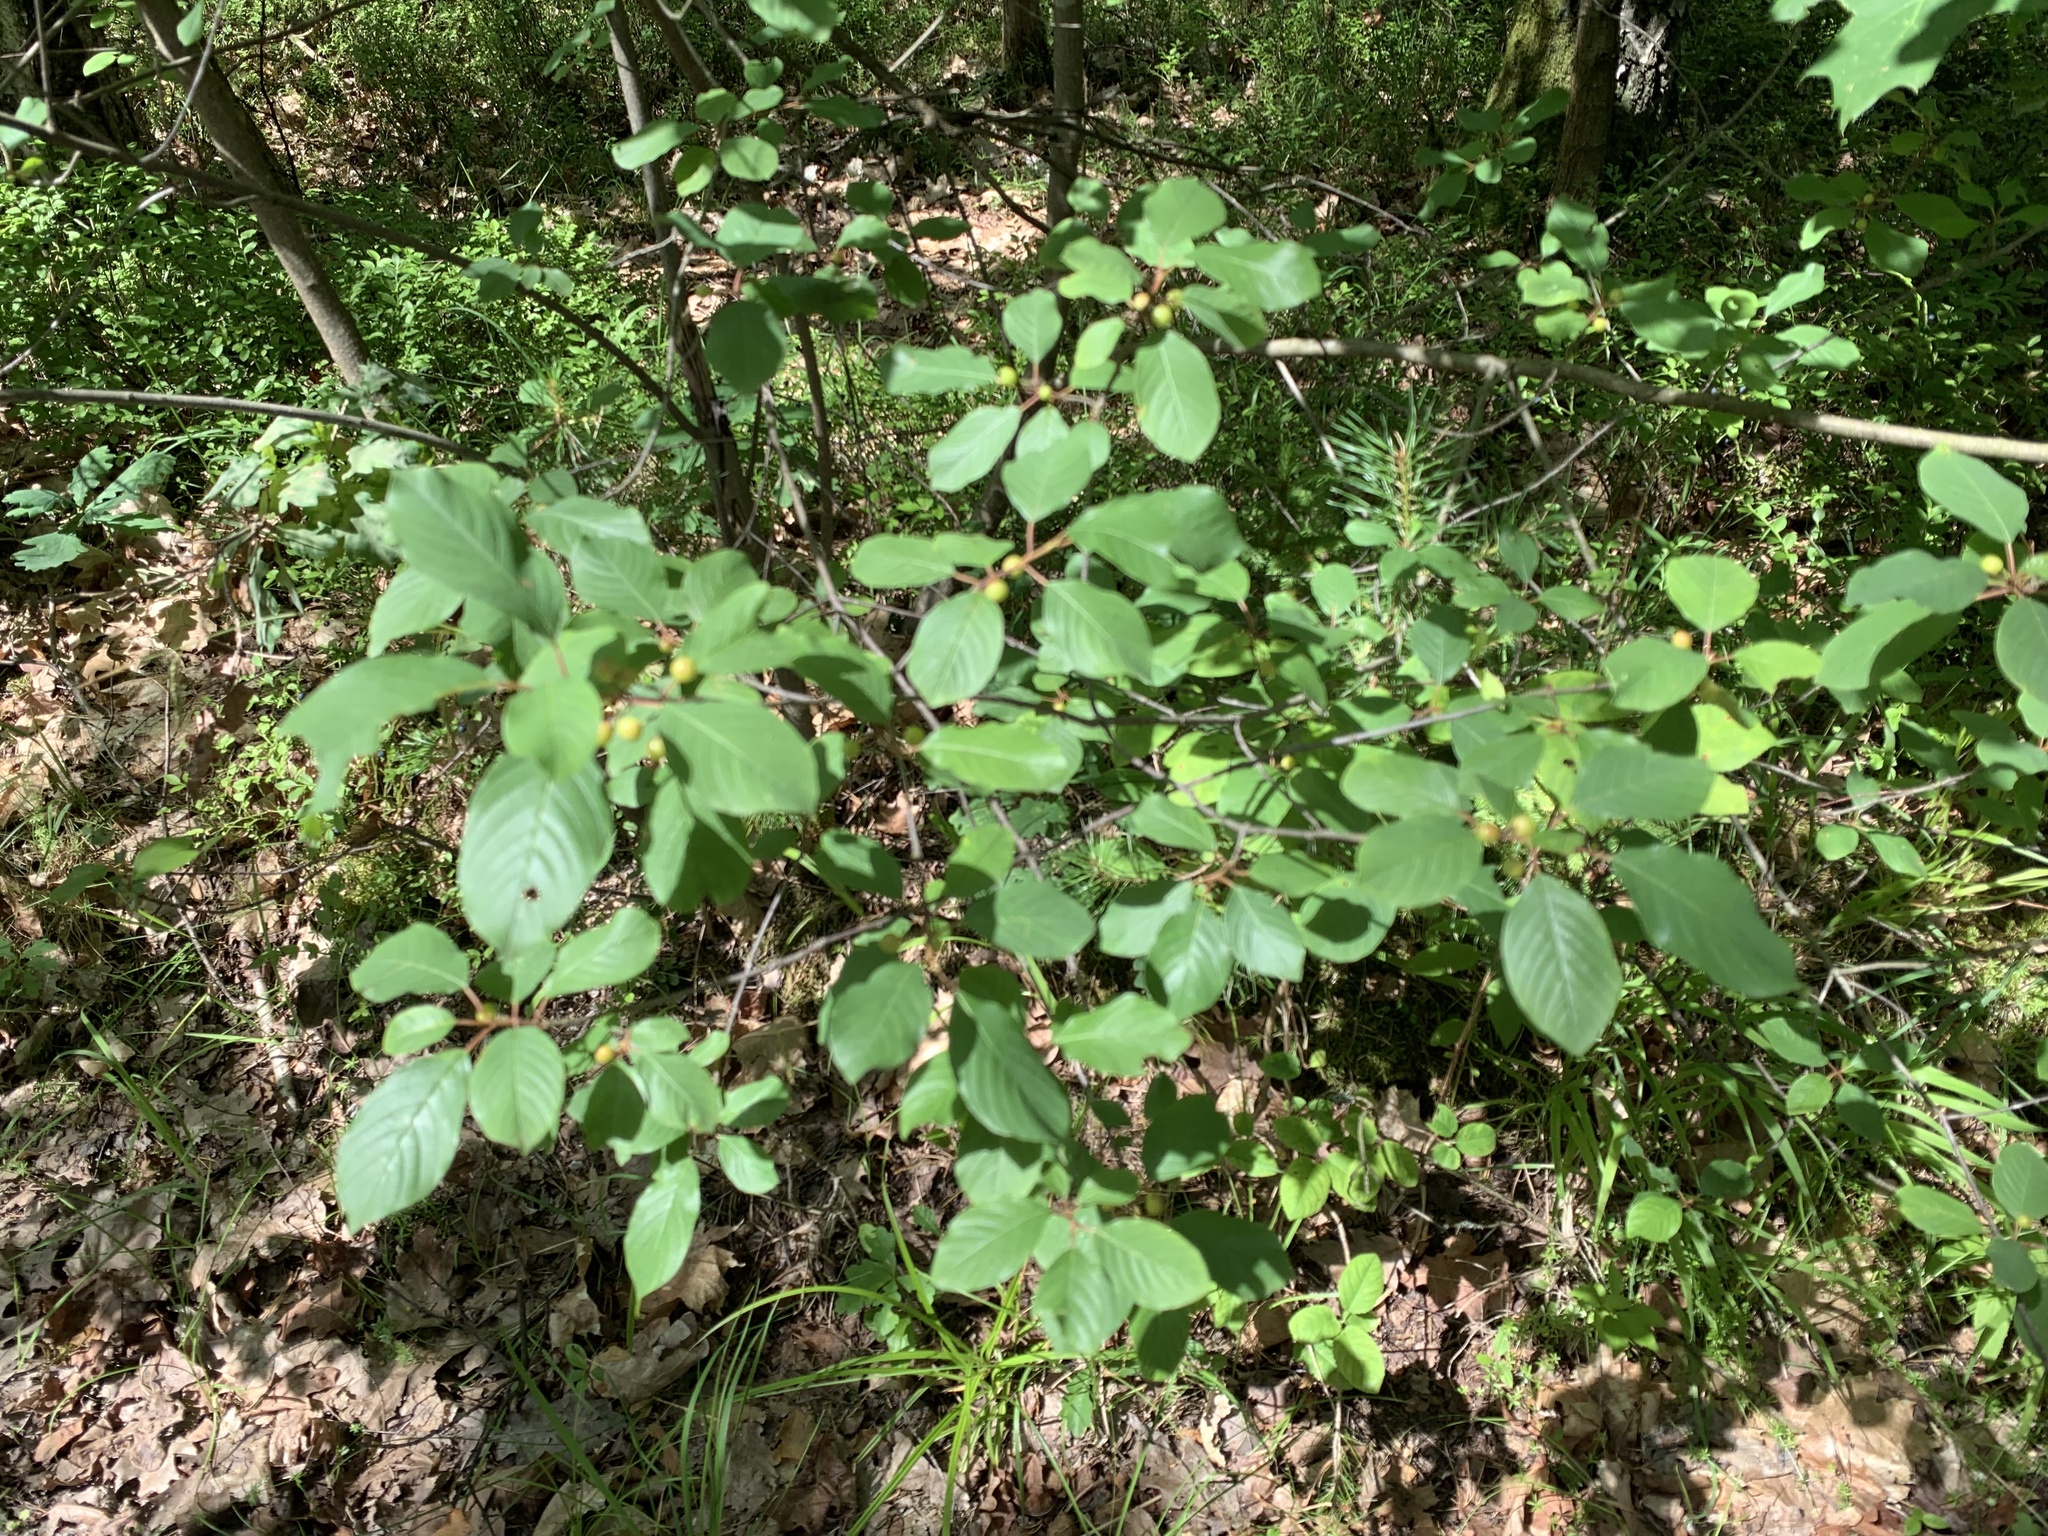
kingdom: Plantae
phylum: Tracheophyta
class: Magnoliopsida
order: Rosales
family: Rhamnaceae
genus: Frangula
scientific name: Frangula alnus
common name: Alder buckthorn
